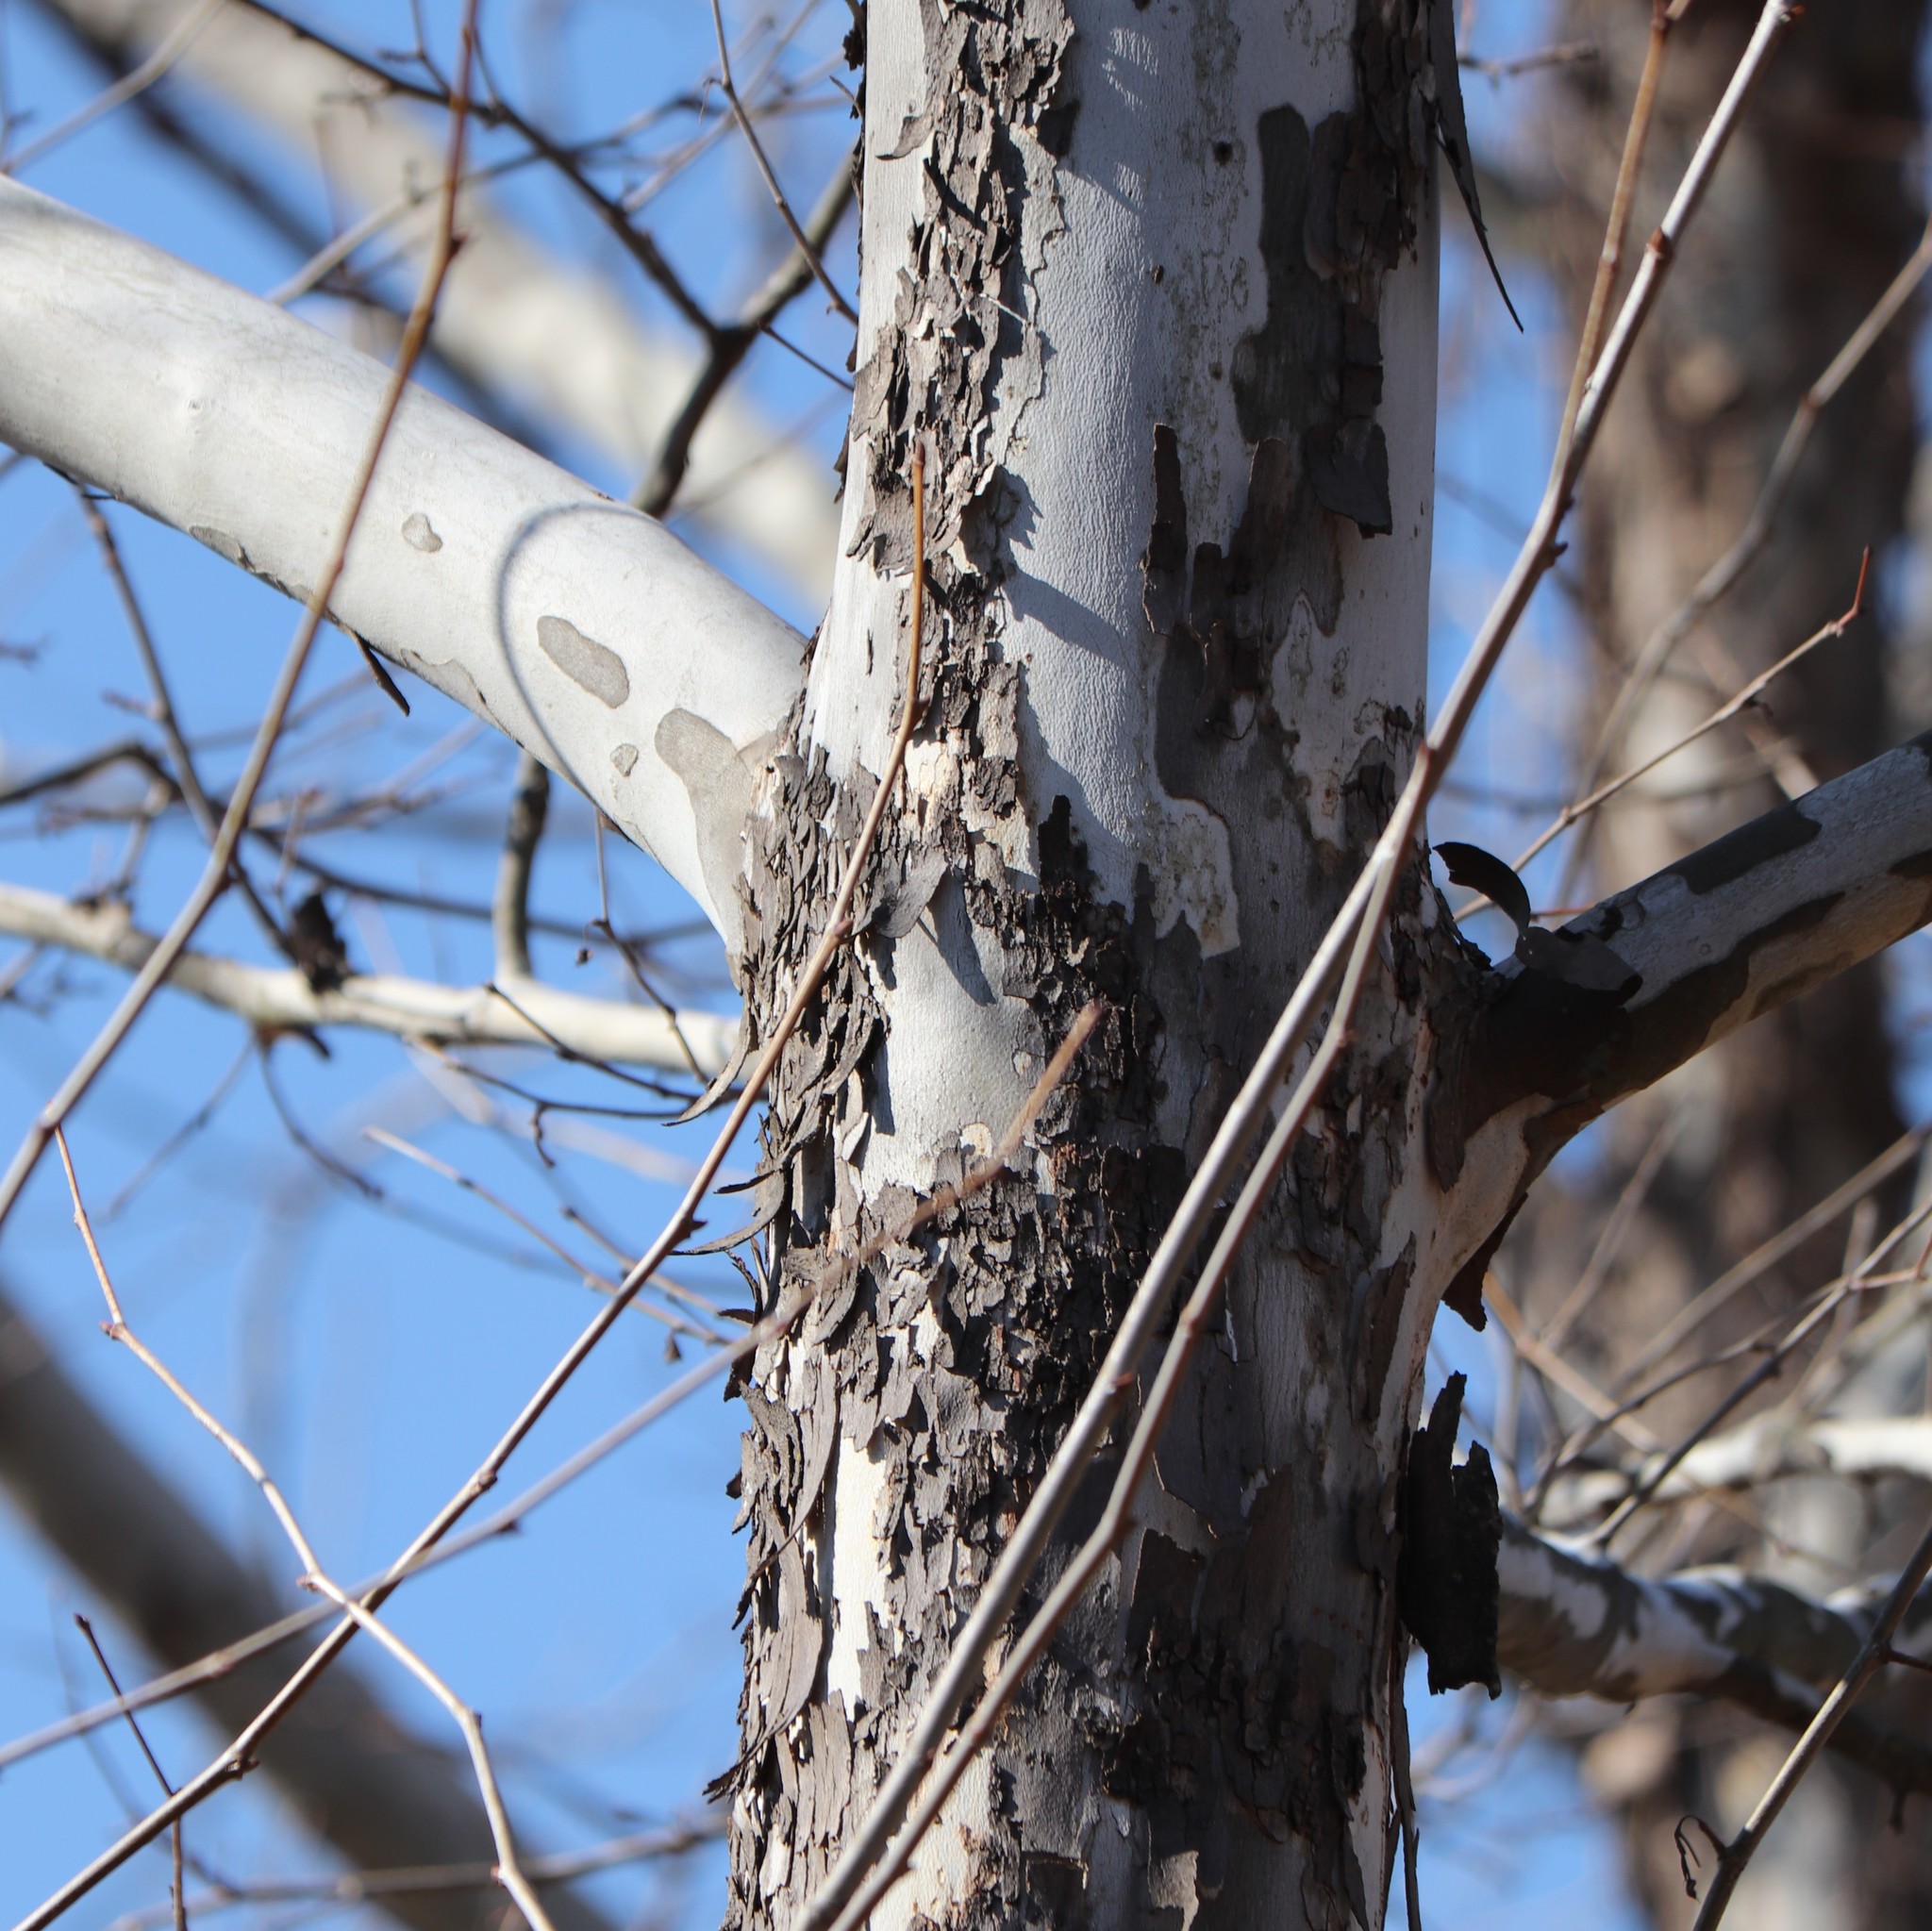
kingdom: Plantae
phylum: Tracheophyta
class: Magnoliopsida
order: Proteales
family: Platanaceae
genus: Platanus
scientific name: Platanus occidentalis
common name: American sycamore
